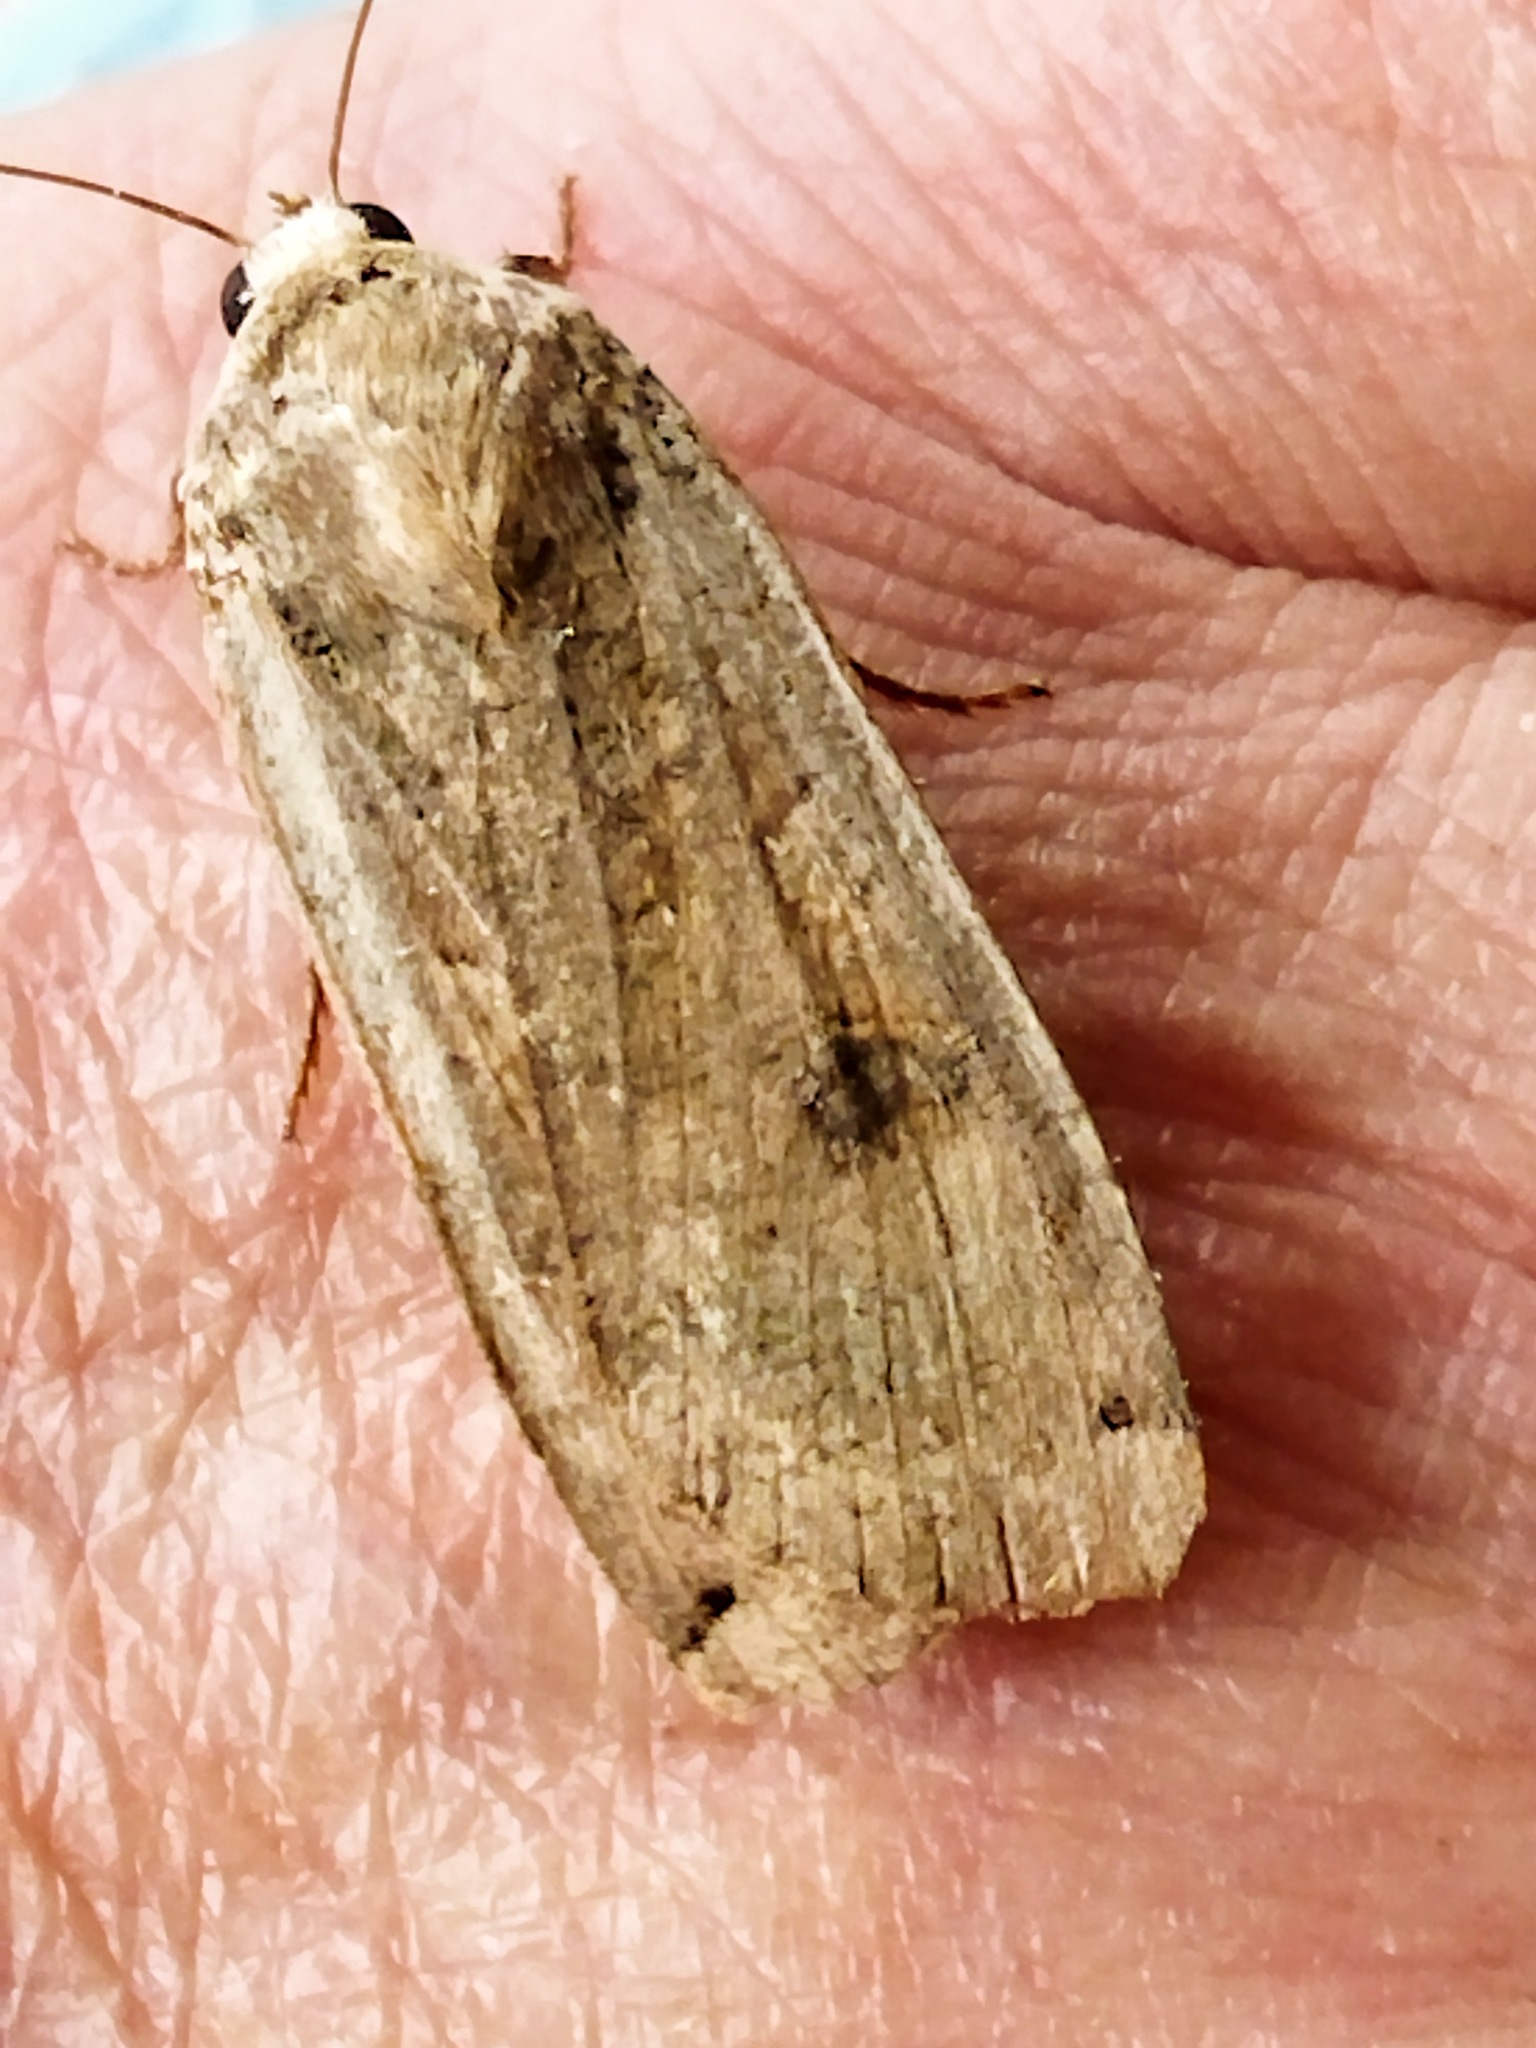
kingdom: Animalia
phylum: Arthropoda
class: Insecta
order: Lepidoptera
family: Noctuidae
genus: Noctua
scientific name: Noctua pronuba
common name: Large yellow underwing
